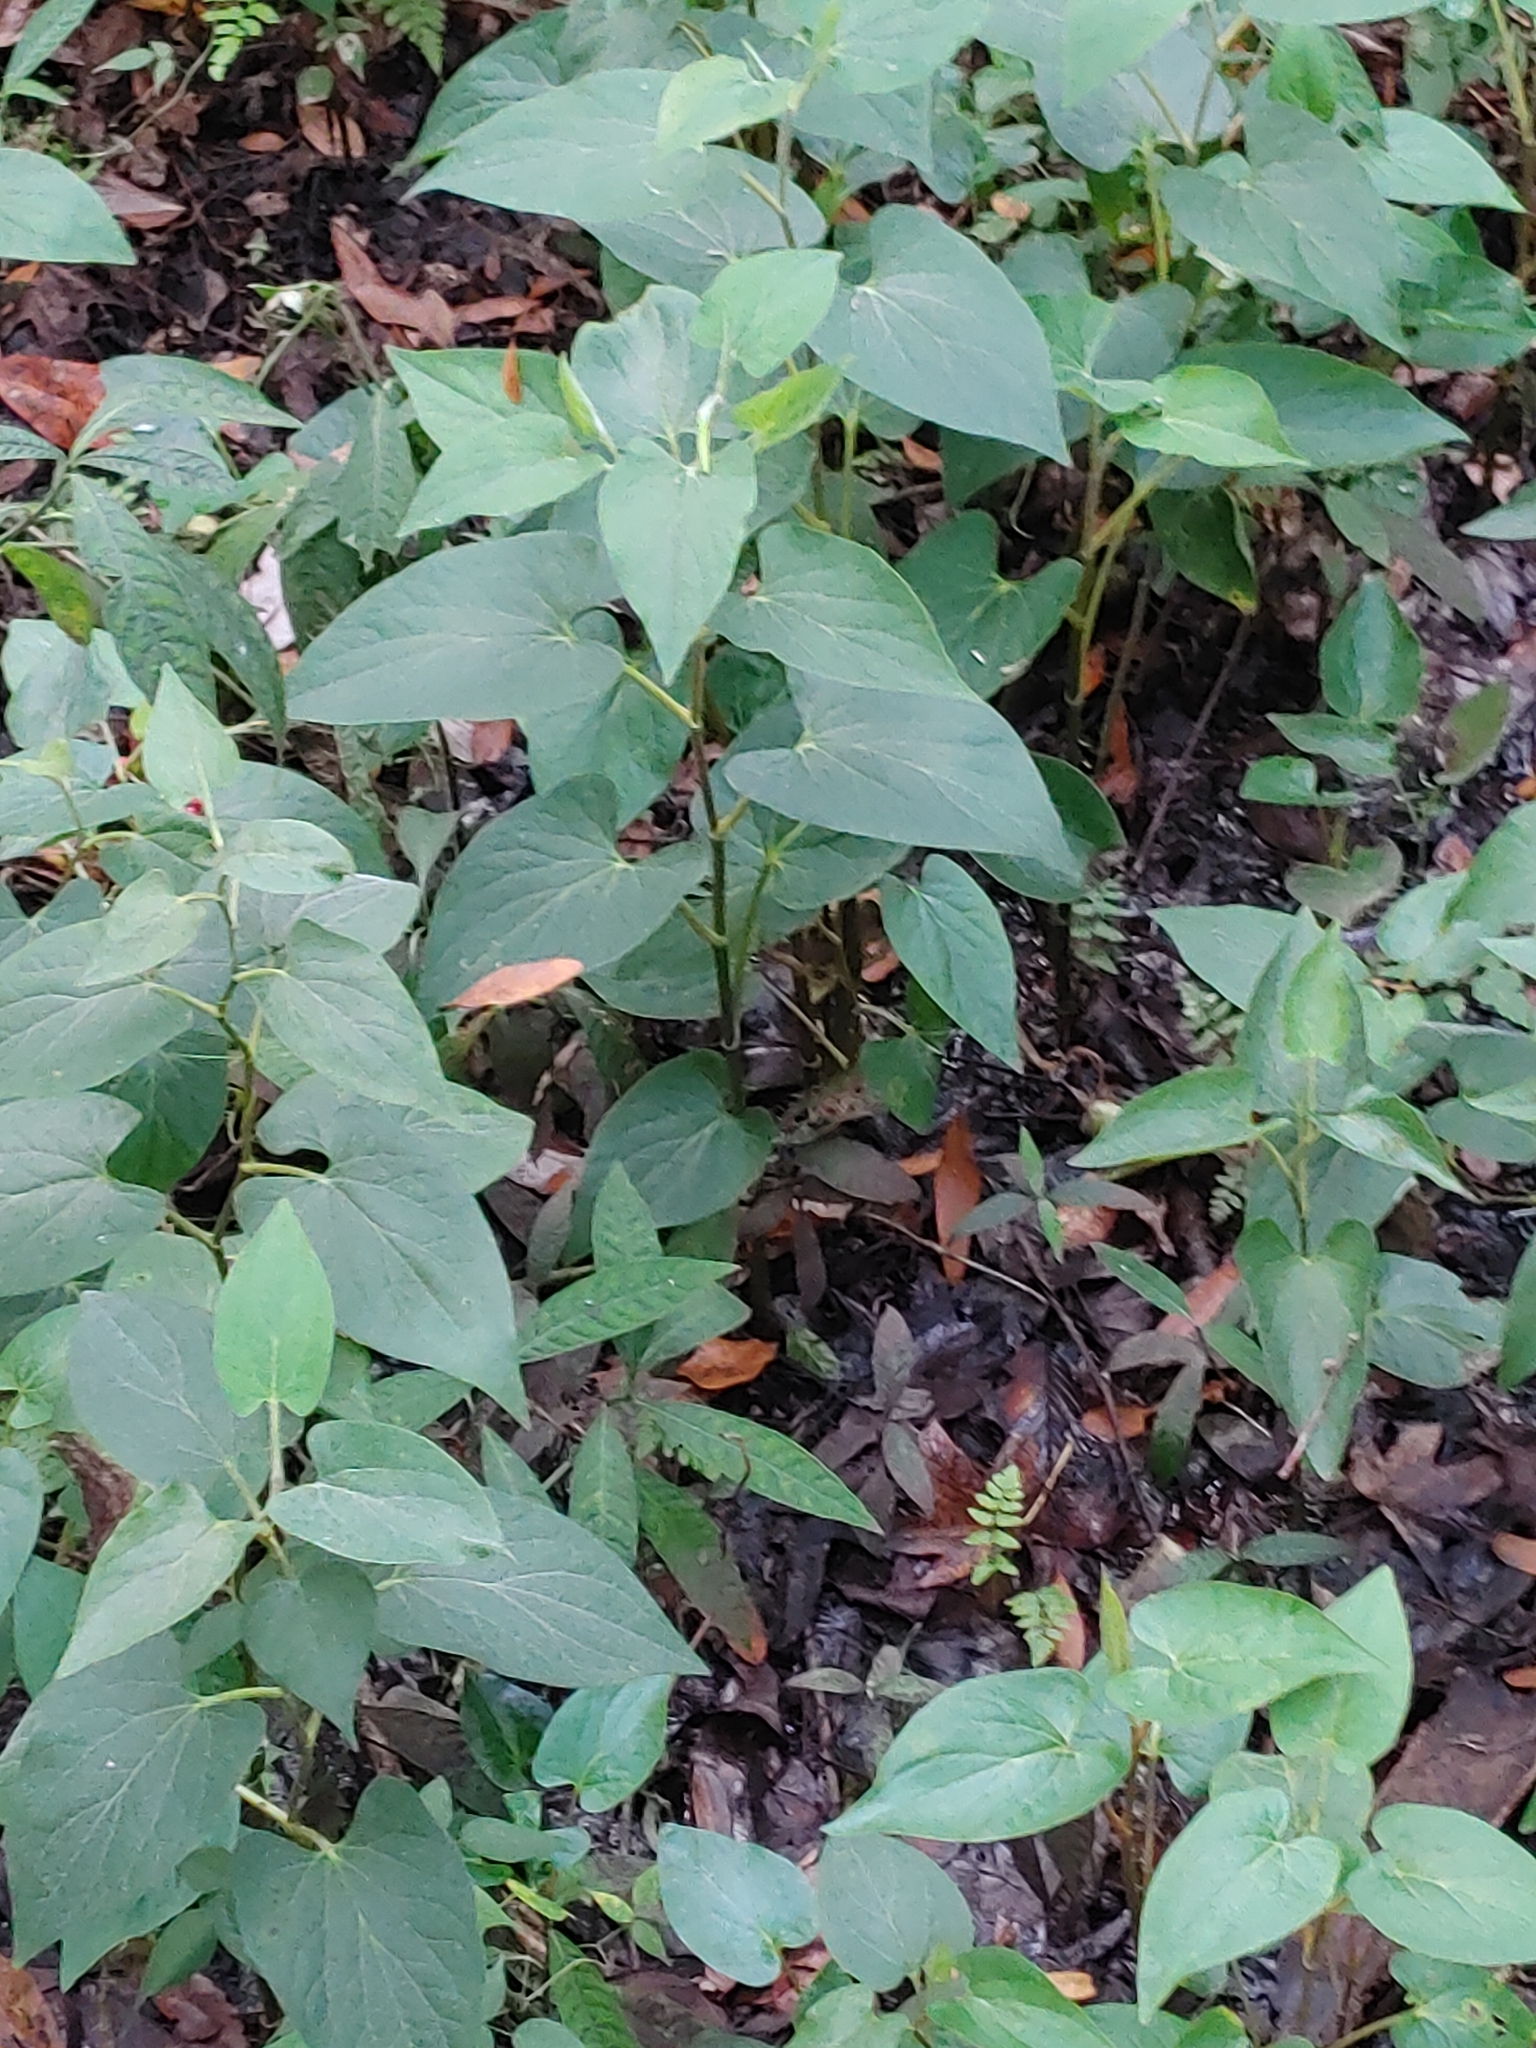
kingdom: Plantae
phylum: Tracheophyta
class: Magnoliopsida
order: Piperales
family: Saururaceae
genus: Saururus
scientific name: Saururus cernuus
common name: Lizard's-tail
